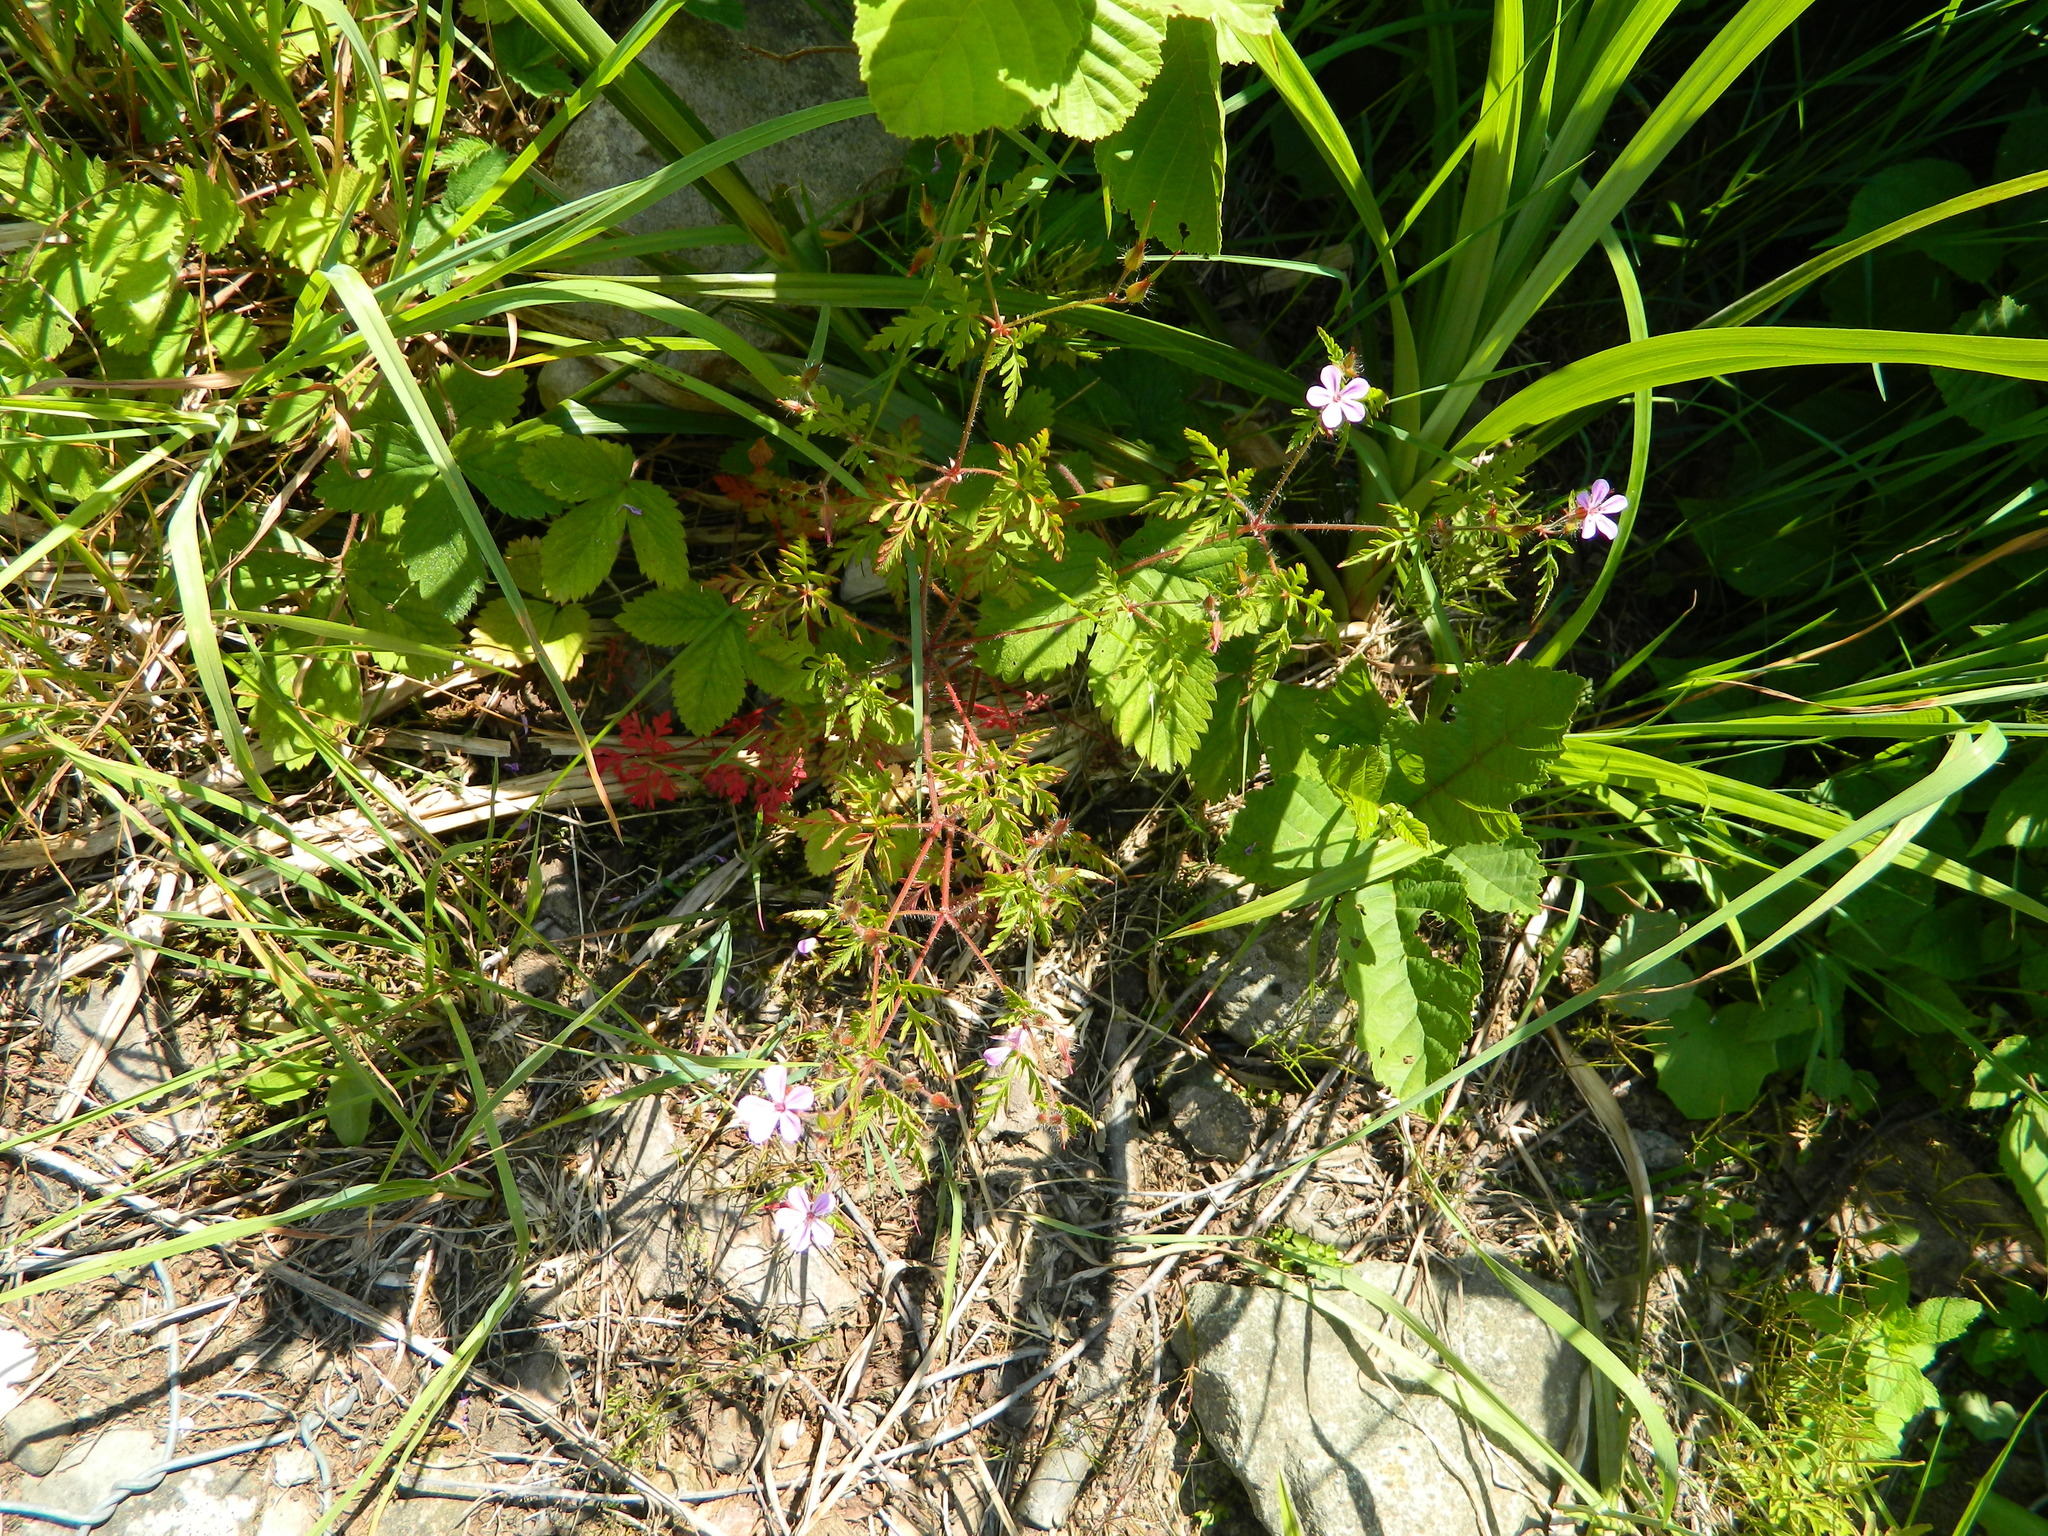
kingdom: Plantae
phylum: Tracheophyta
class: Magnoliopsida
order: Geraniales
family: Geraniaceae
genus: Geranium
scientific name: Geranium robertianum
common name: Herb-robert
